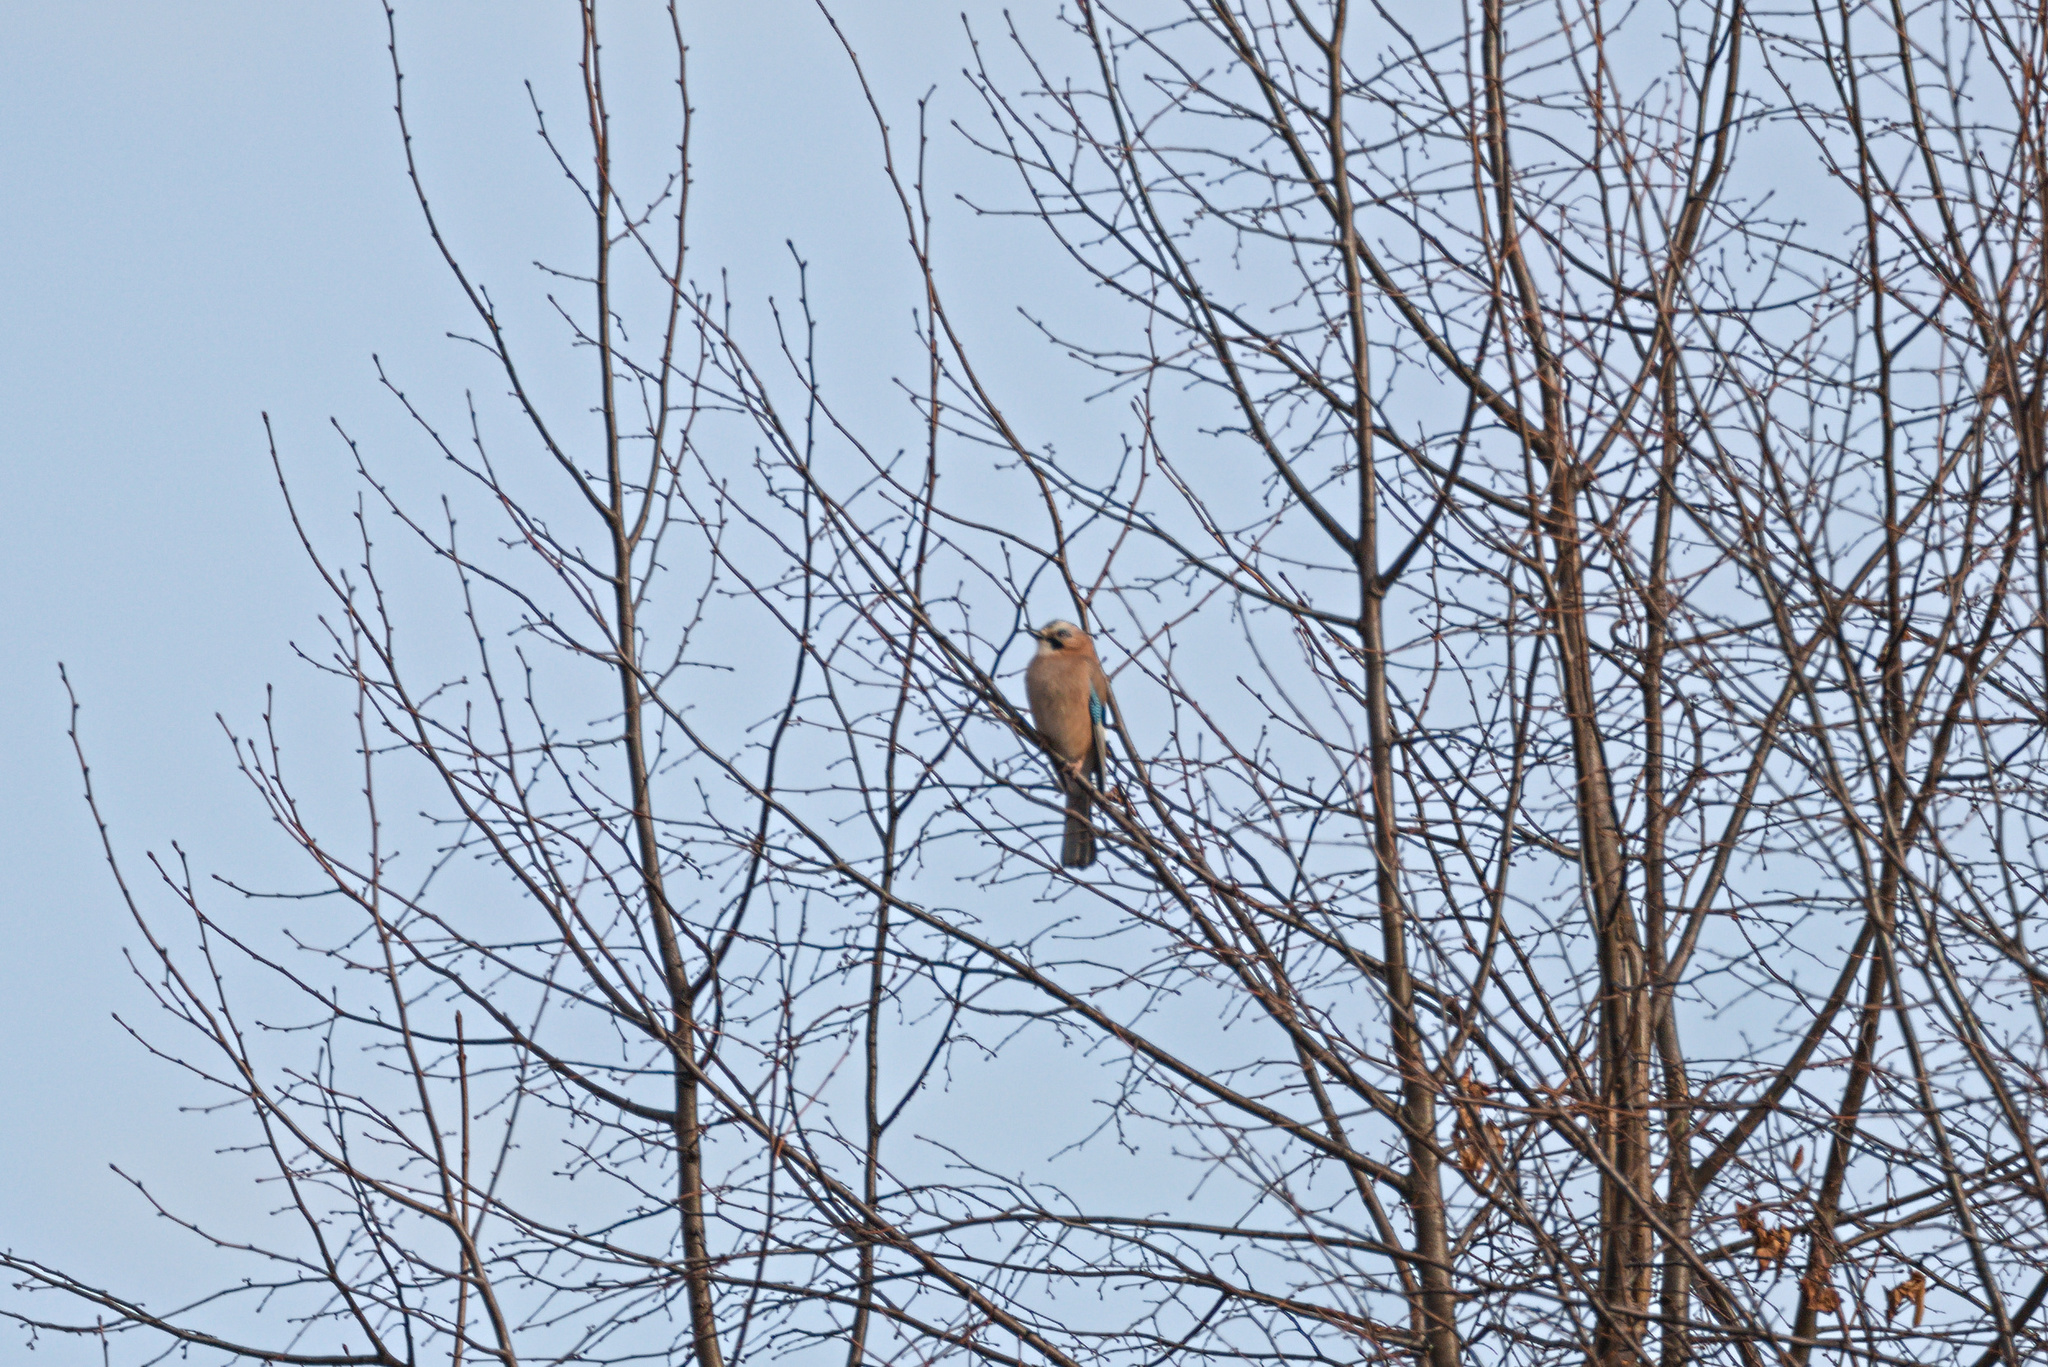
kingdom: Animalia
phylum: Chordata
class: Aves
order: Passeriformes
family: Corvidae
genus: Garrulus
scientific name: Garrulus glandarius
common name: Eurasian jay
